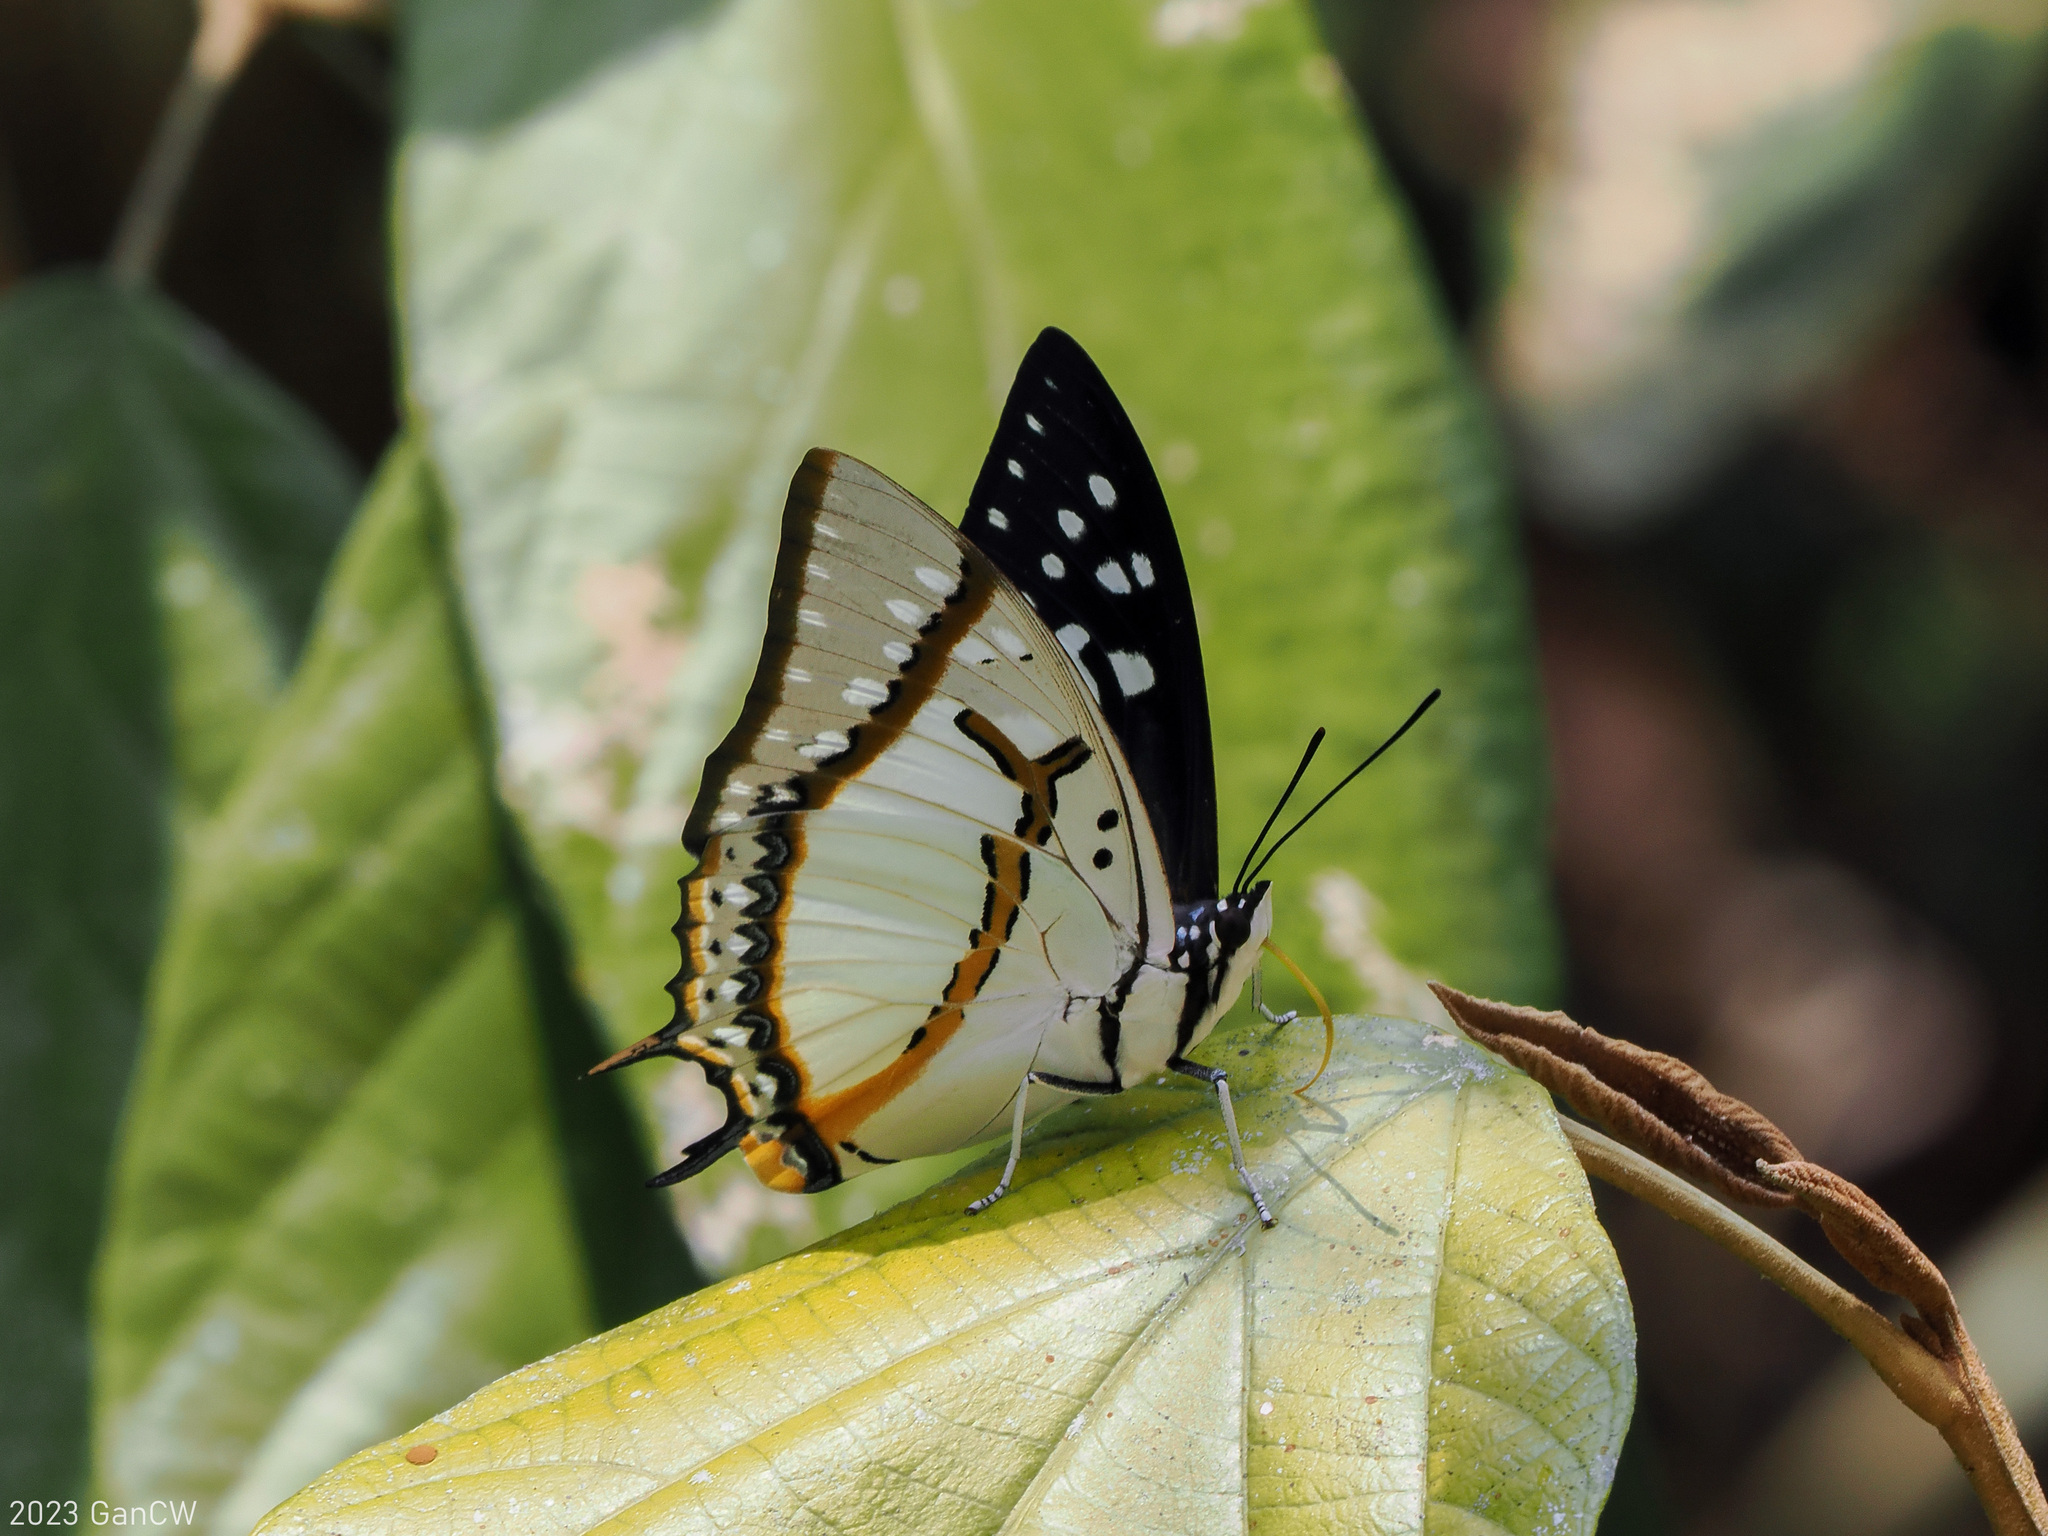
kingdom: Animalia
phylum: Arthropoda
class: Insecta
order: Lepidoptera
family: Nymphalidae
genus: Polyura
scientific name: Polyura eudamippus
